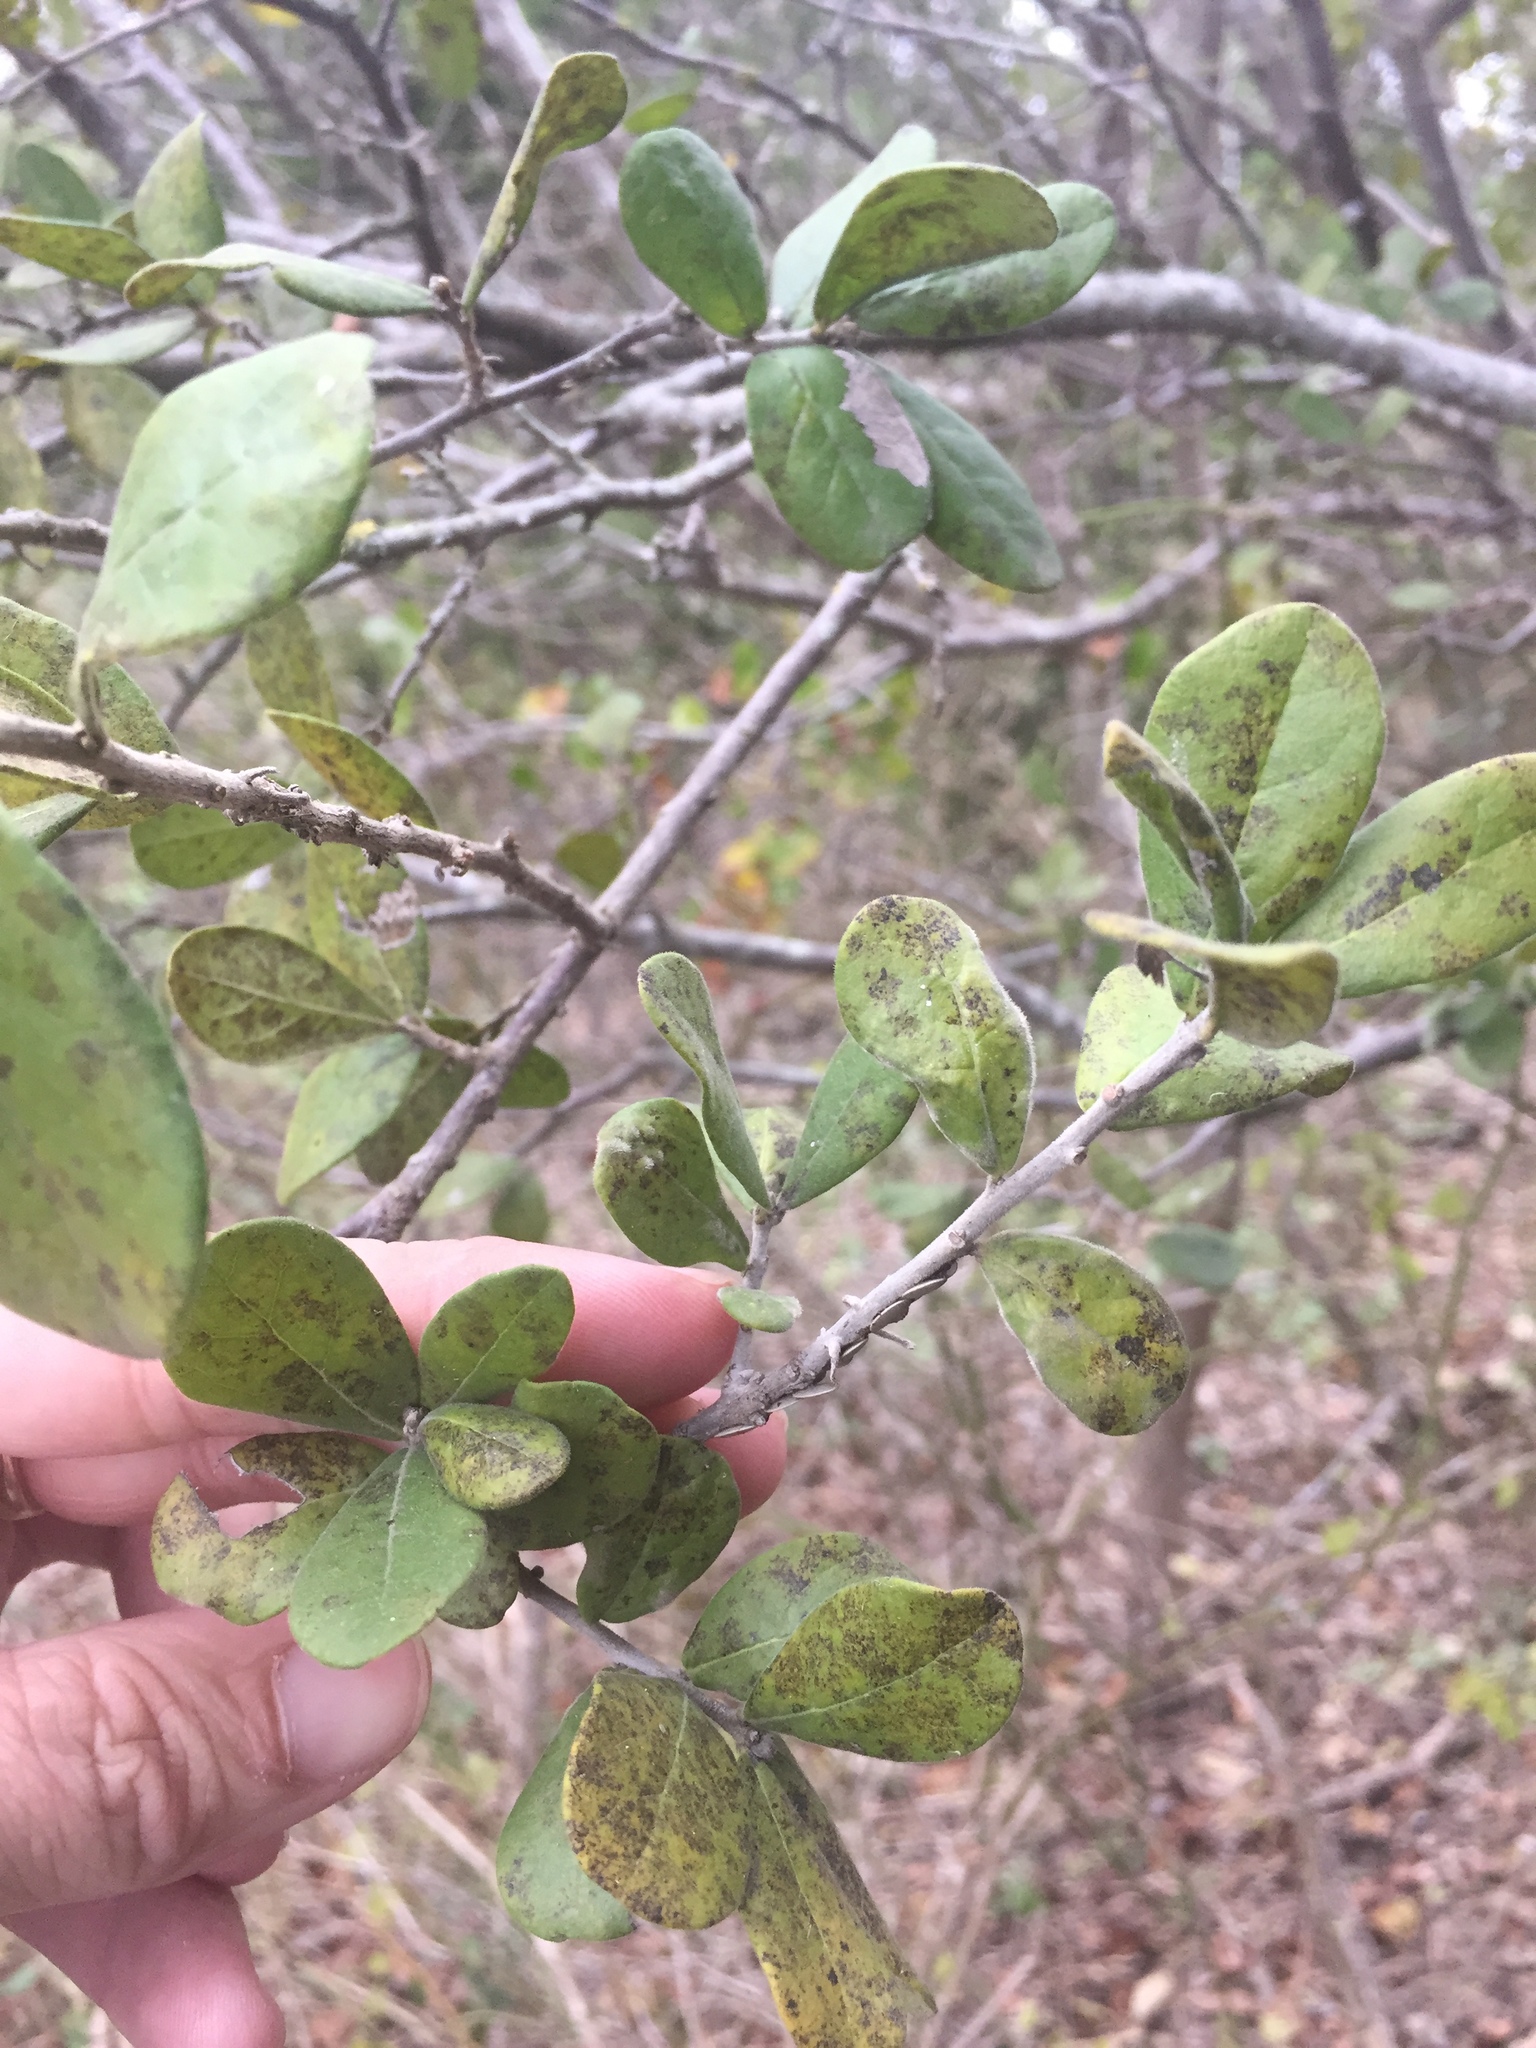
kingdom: Plantae
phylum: Tracheophyta
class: Magnoliopsida
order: Ericales
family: Ebenaceae
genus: Diospyros
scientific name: Diospyros texana
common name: Texas persimmon
